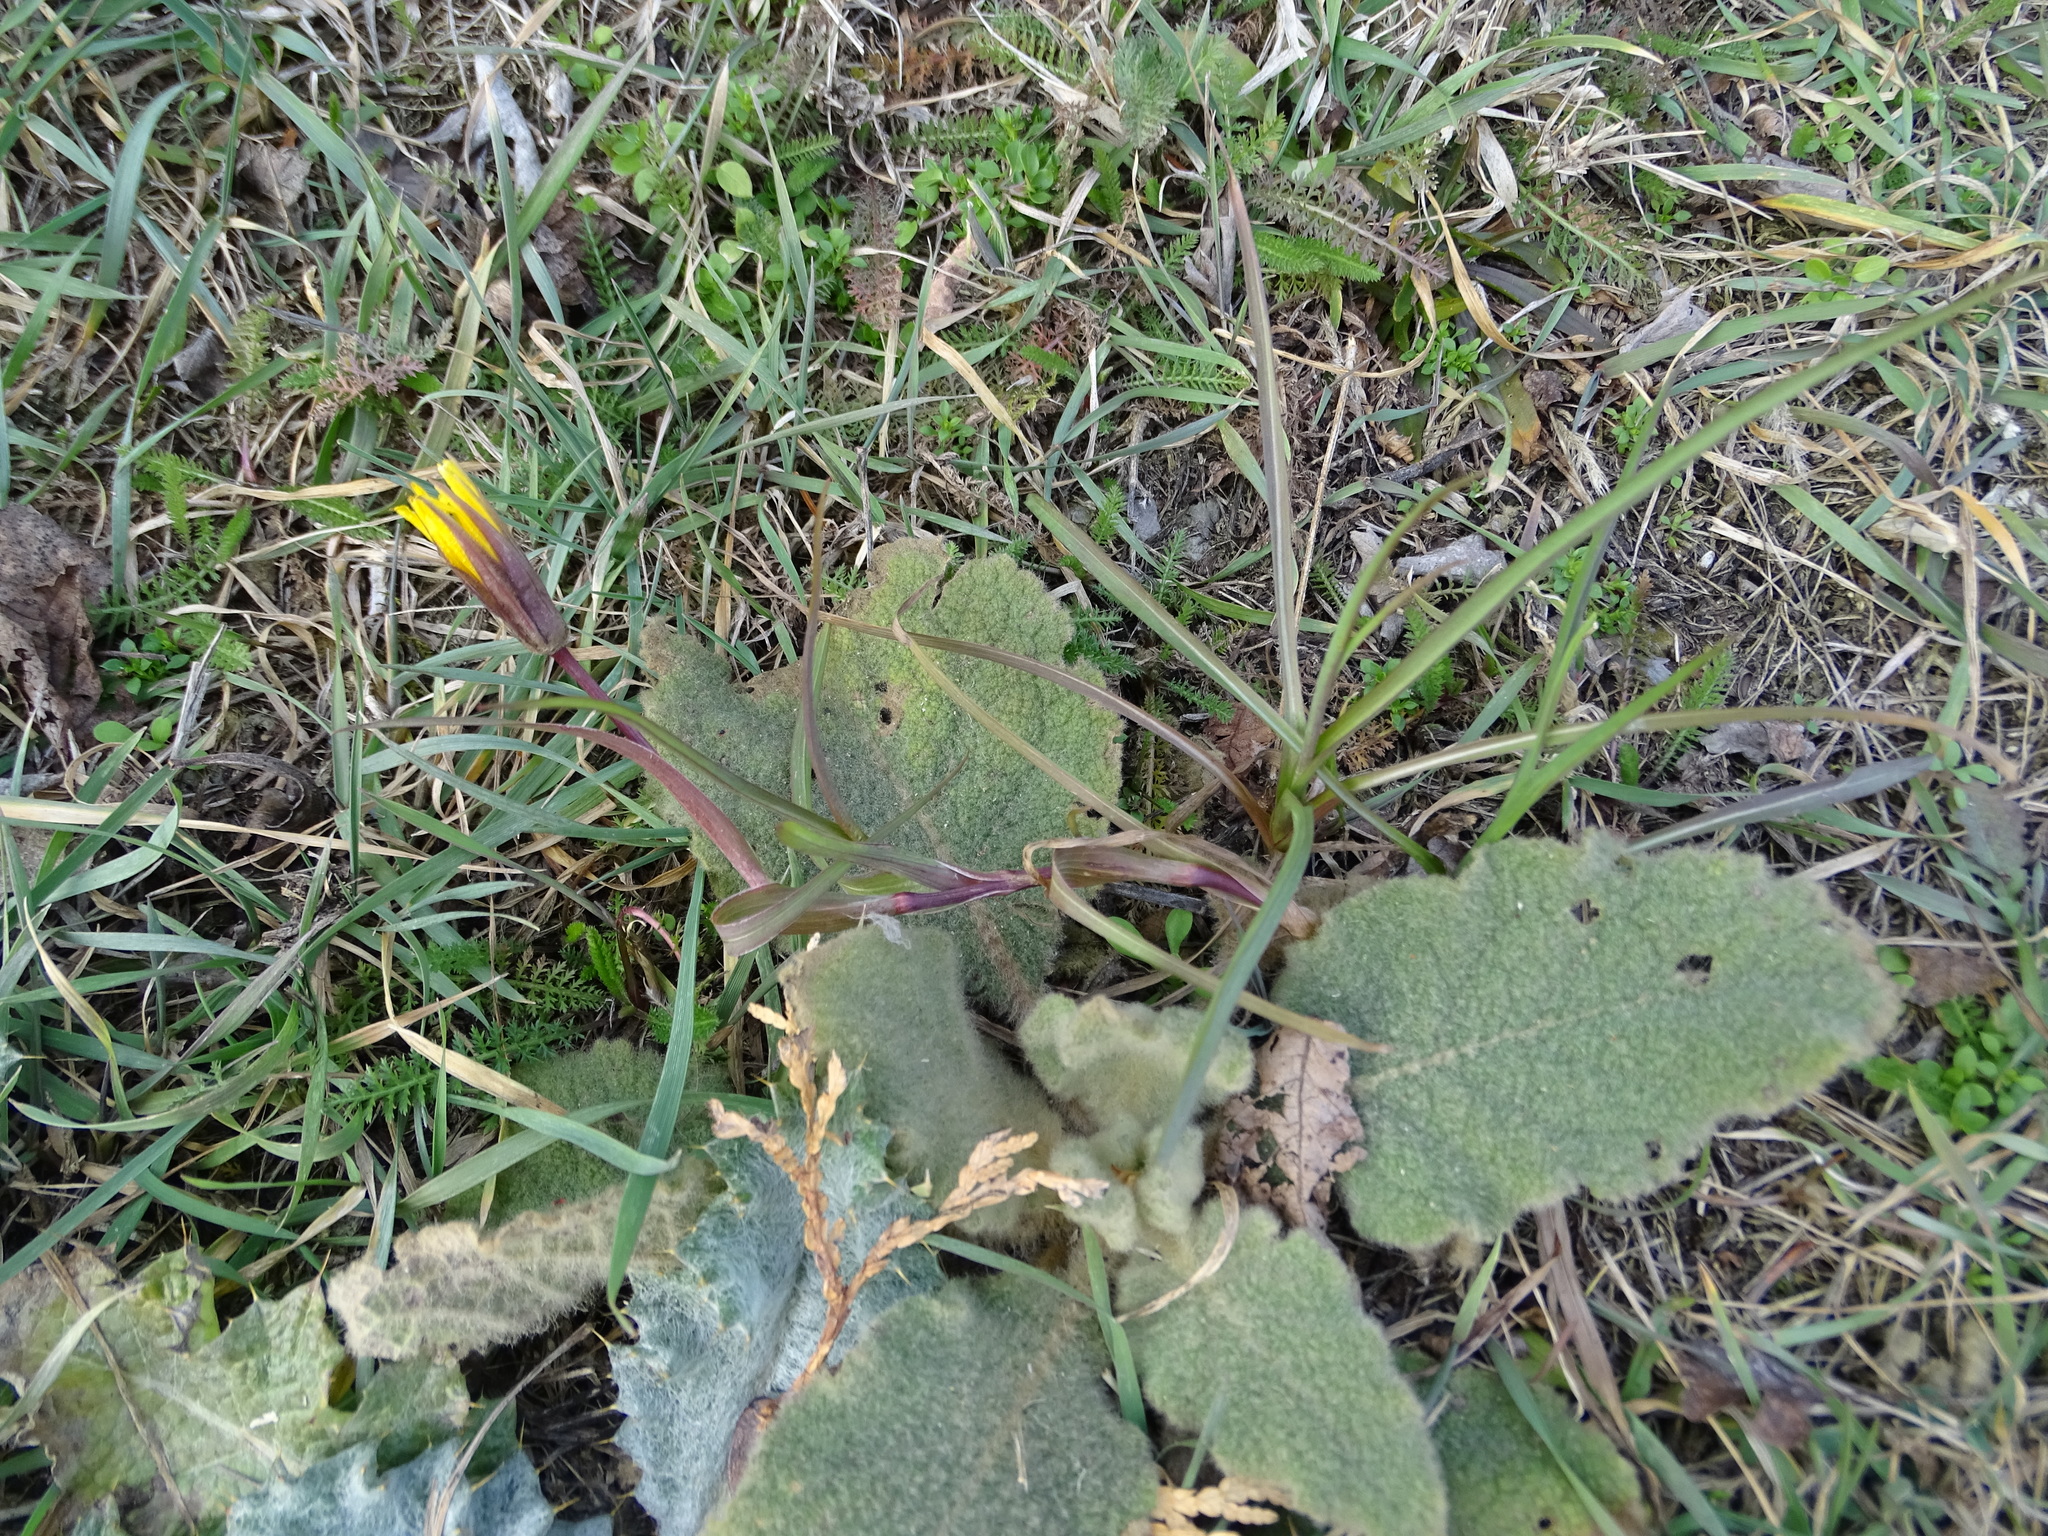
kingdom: Plantae
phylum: Tracheophyta
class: Magnoliopsida
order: Asterales
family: Asteraceae
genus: Tragopogon
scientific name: Tragopogon orientalis
